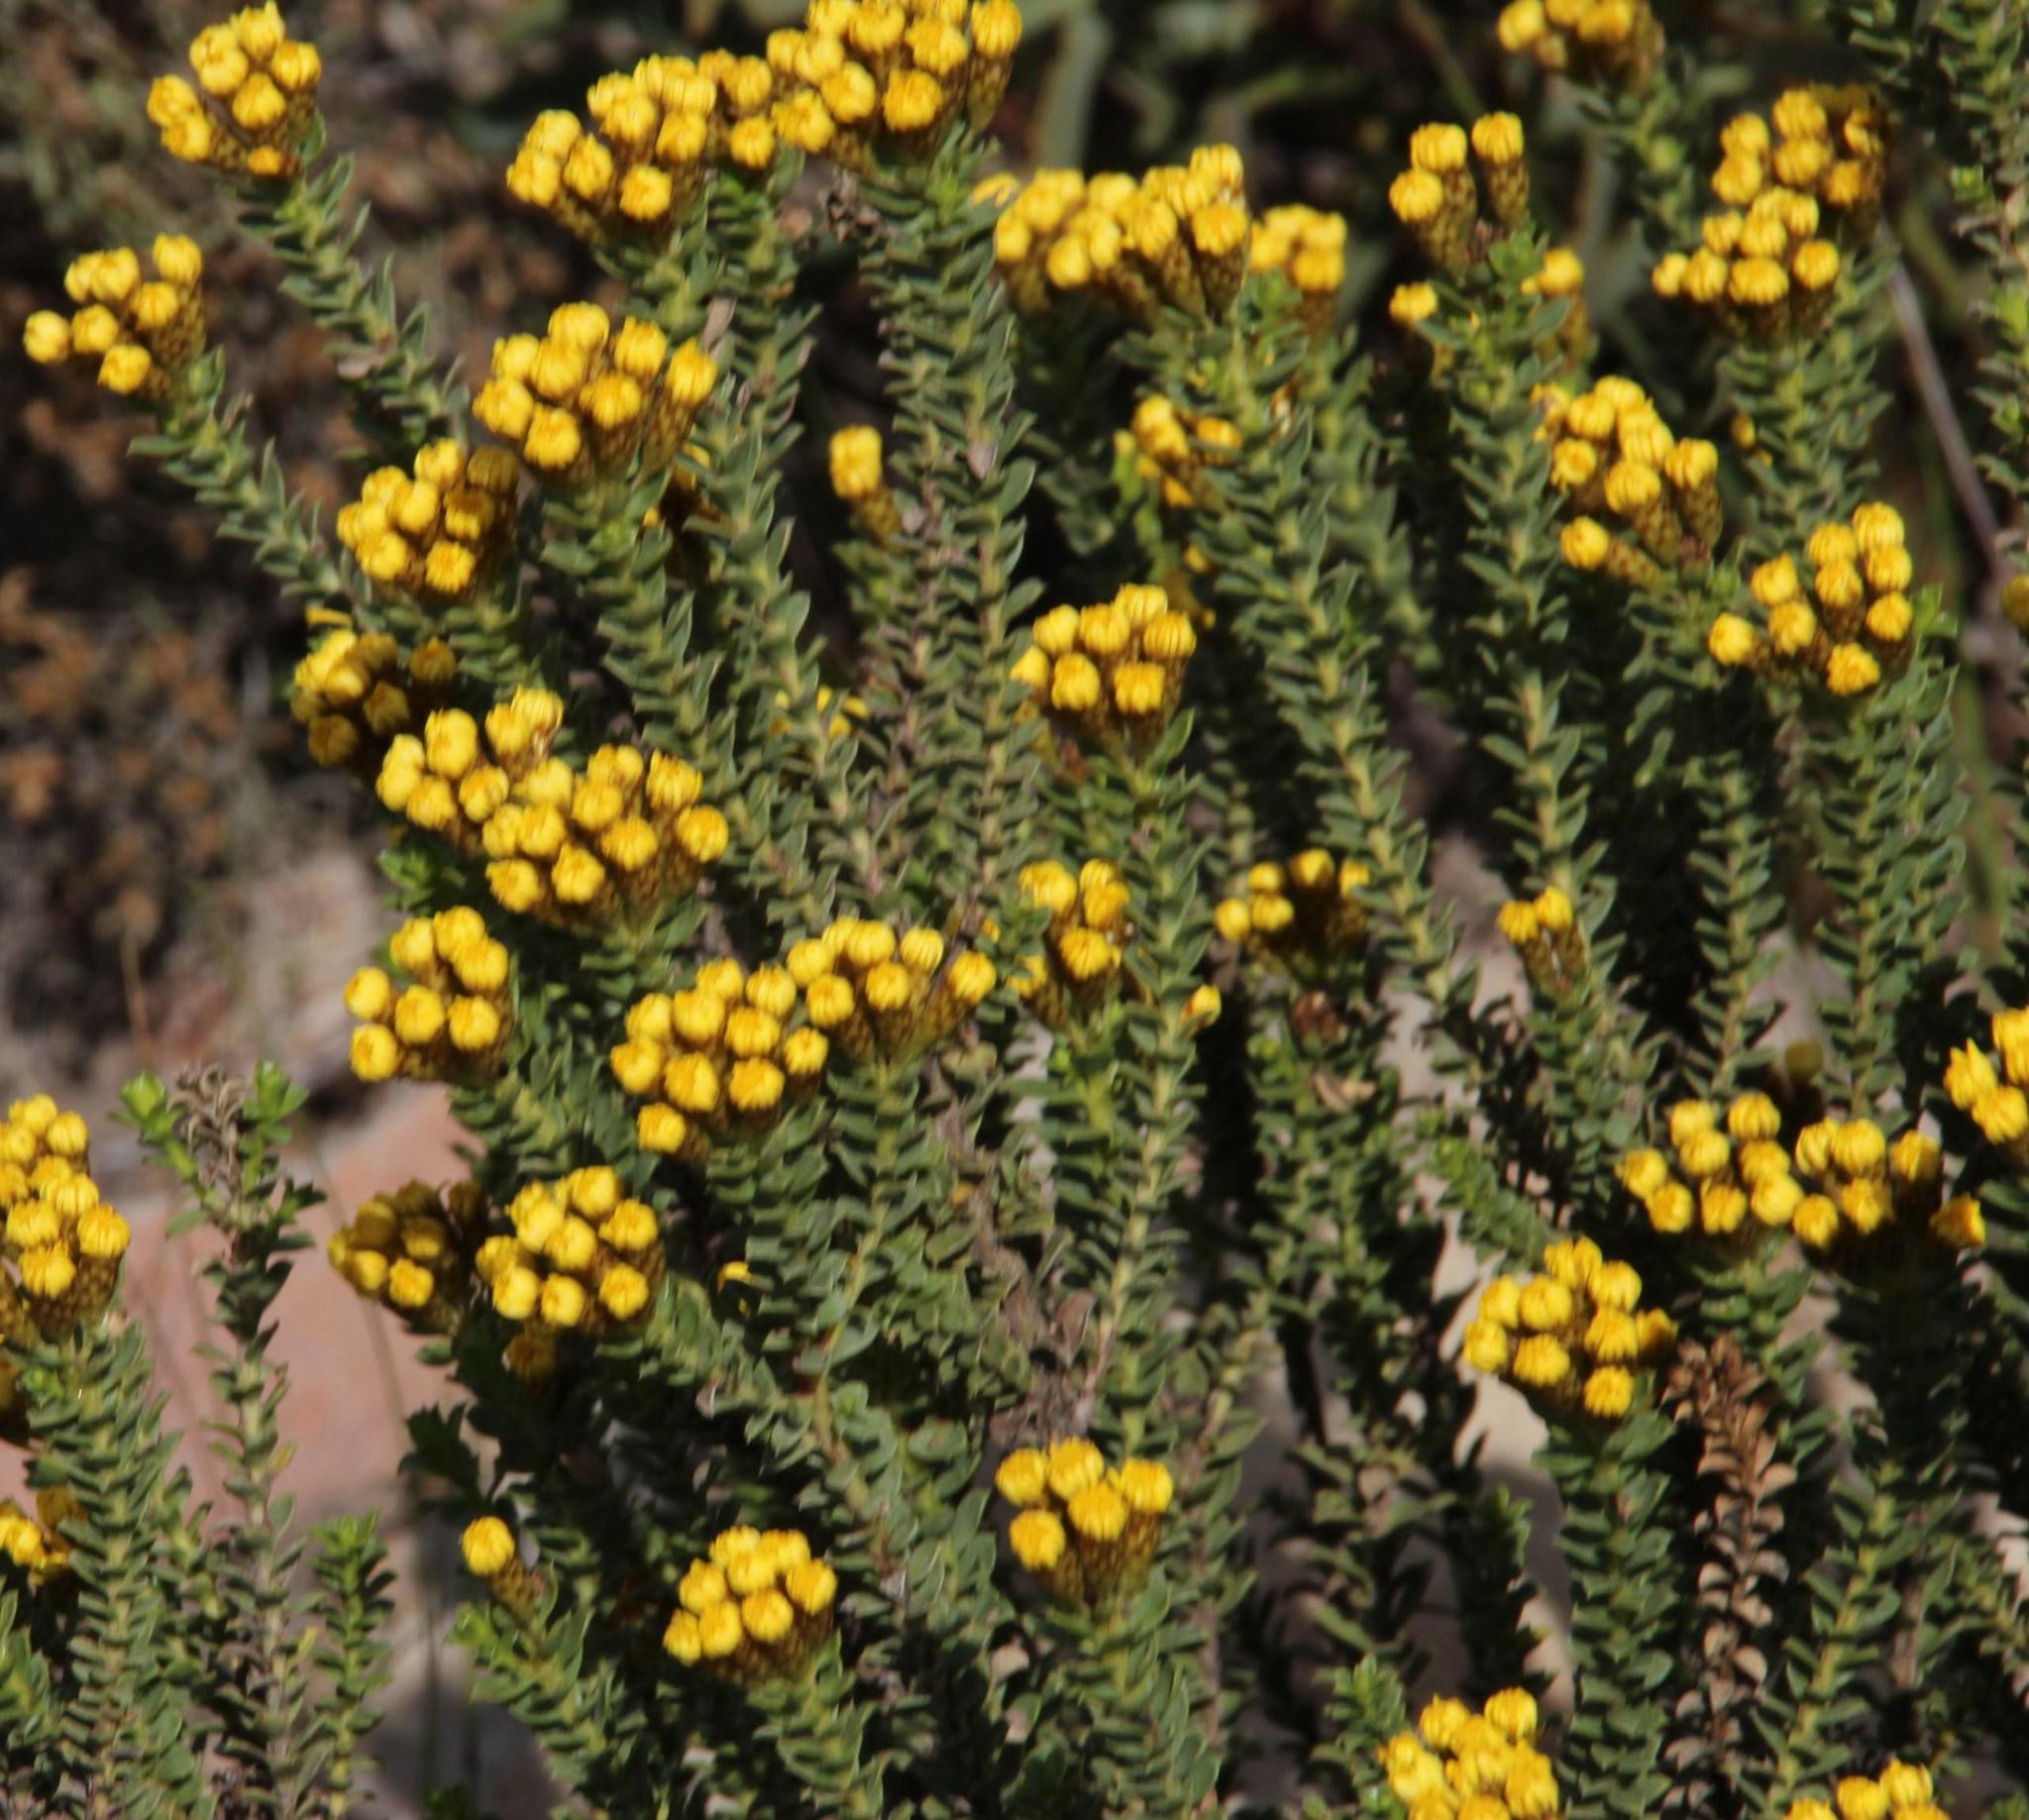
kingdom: Plantae
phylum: Tracheophyta
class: Magnoliopsida
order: Asterales
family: Asteraceae
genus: Oedera
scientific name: Oedera squarrosa
